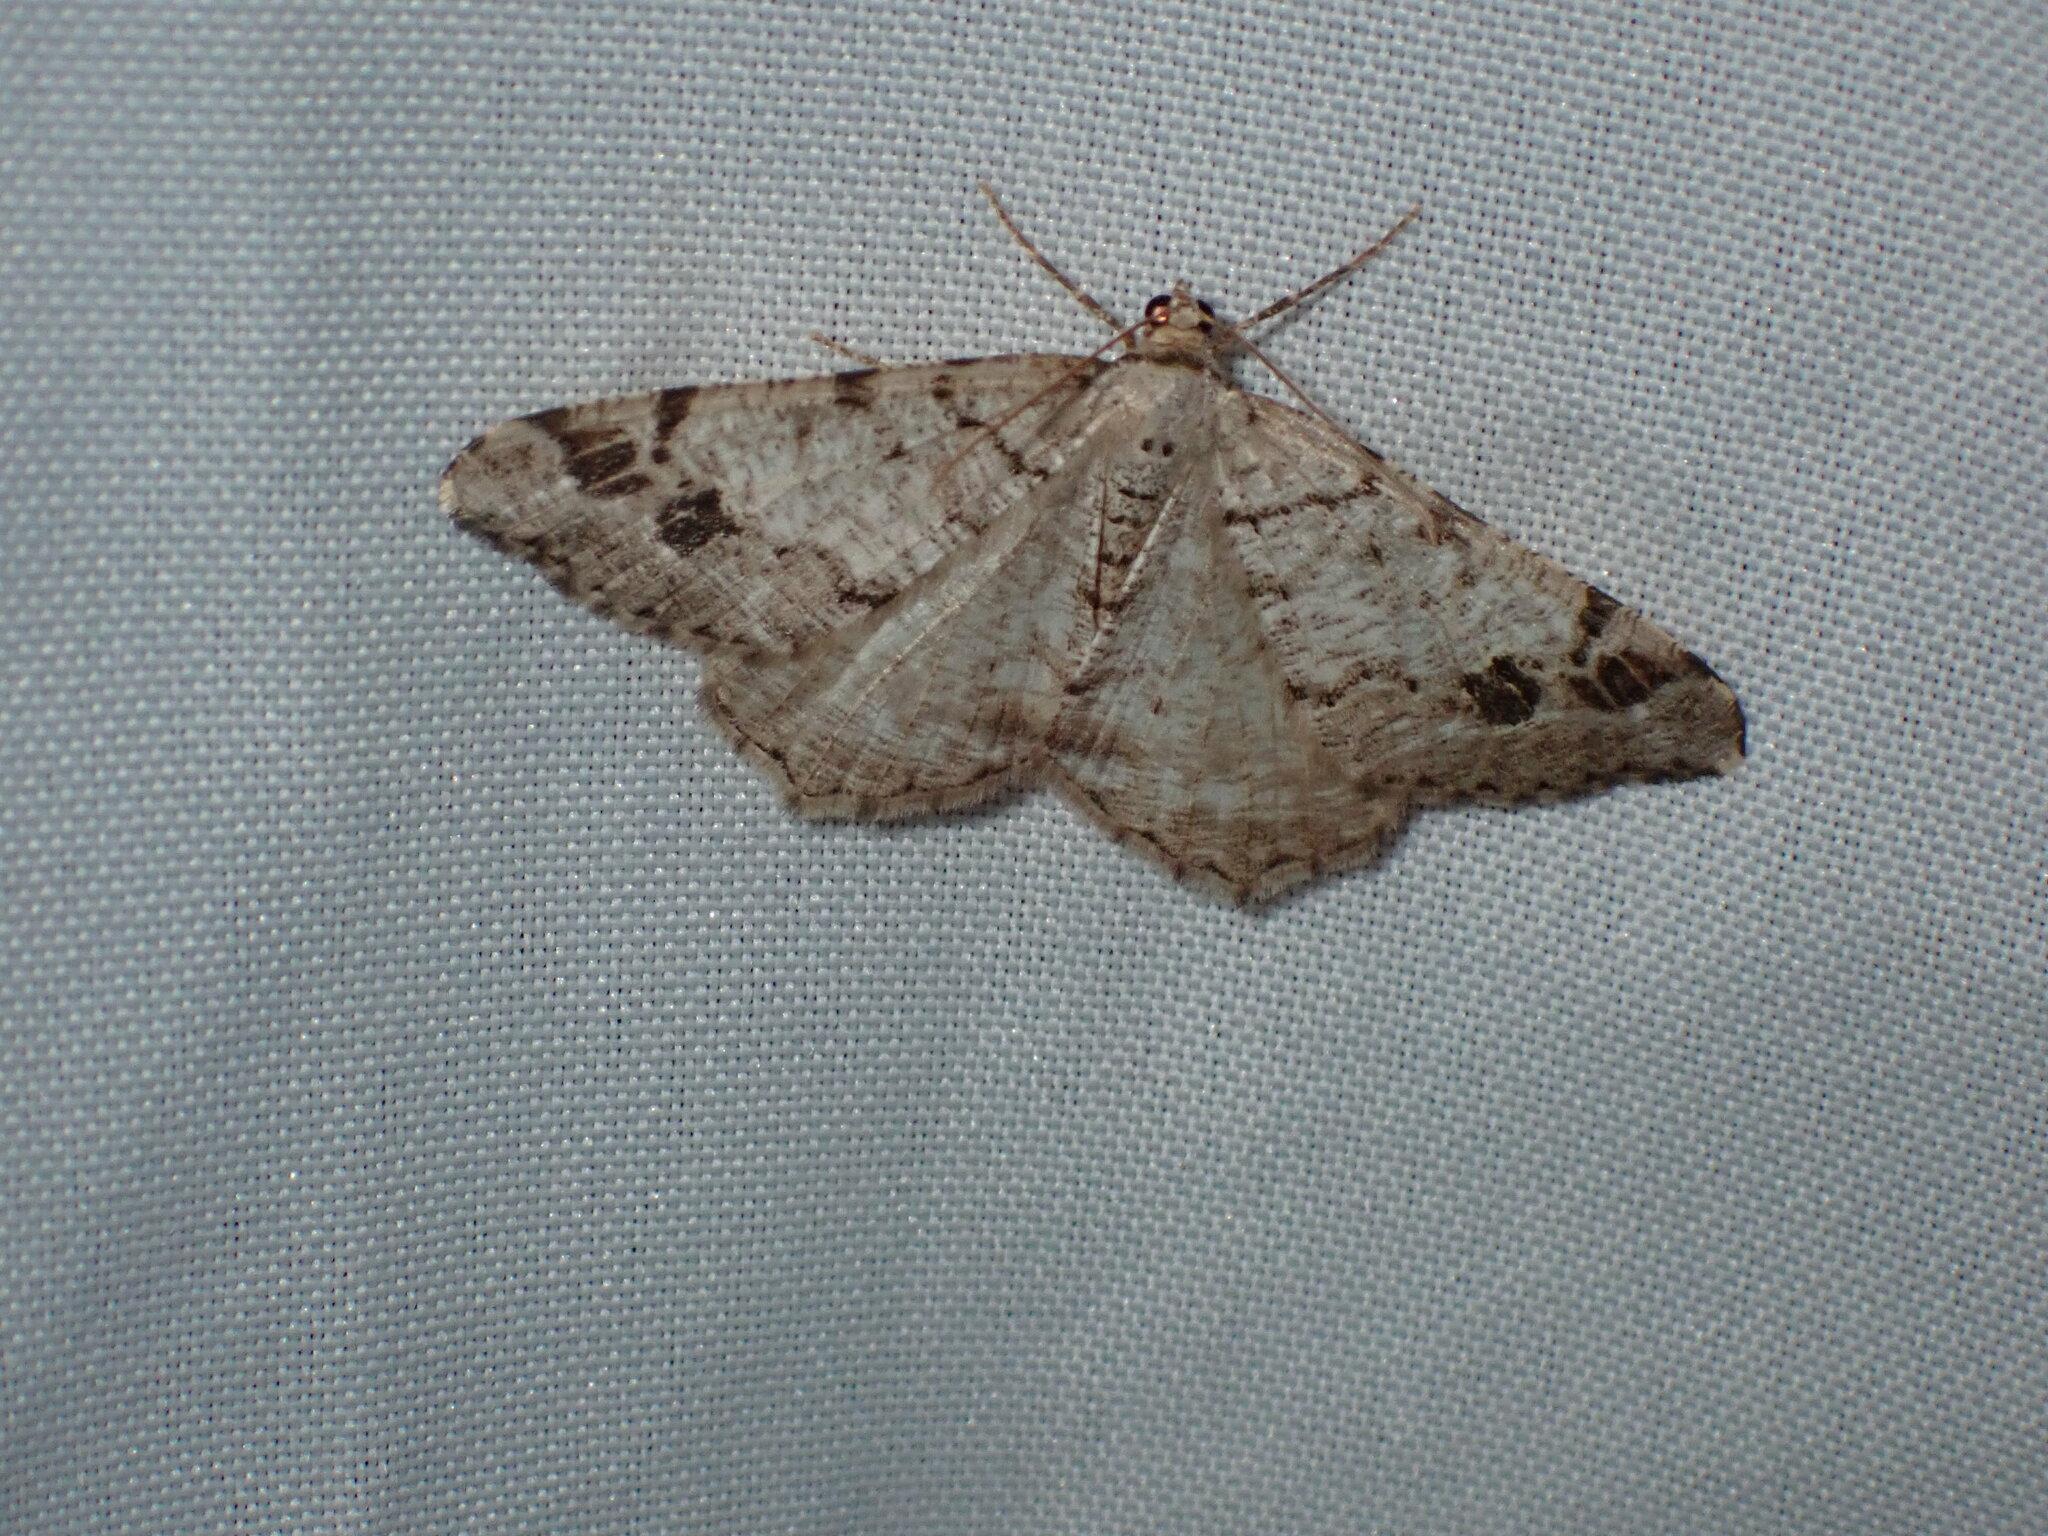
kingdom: Animalia
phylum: Arthropoda
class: Insecta
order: Lepidoptera
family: Geometridae
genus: Macaria
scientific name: Macaria signaria
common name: Dusky peacock
